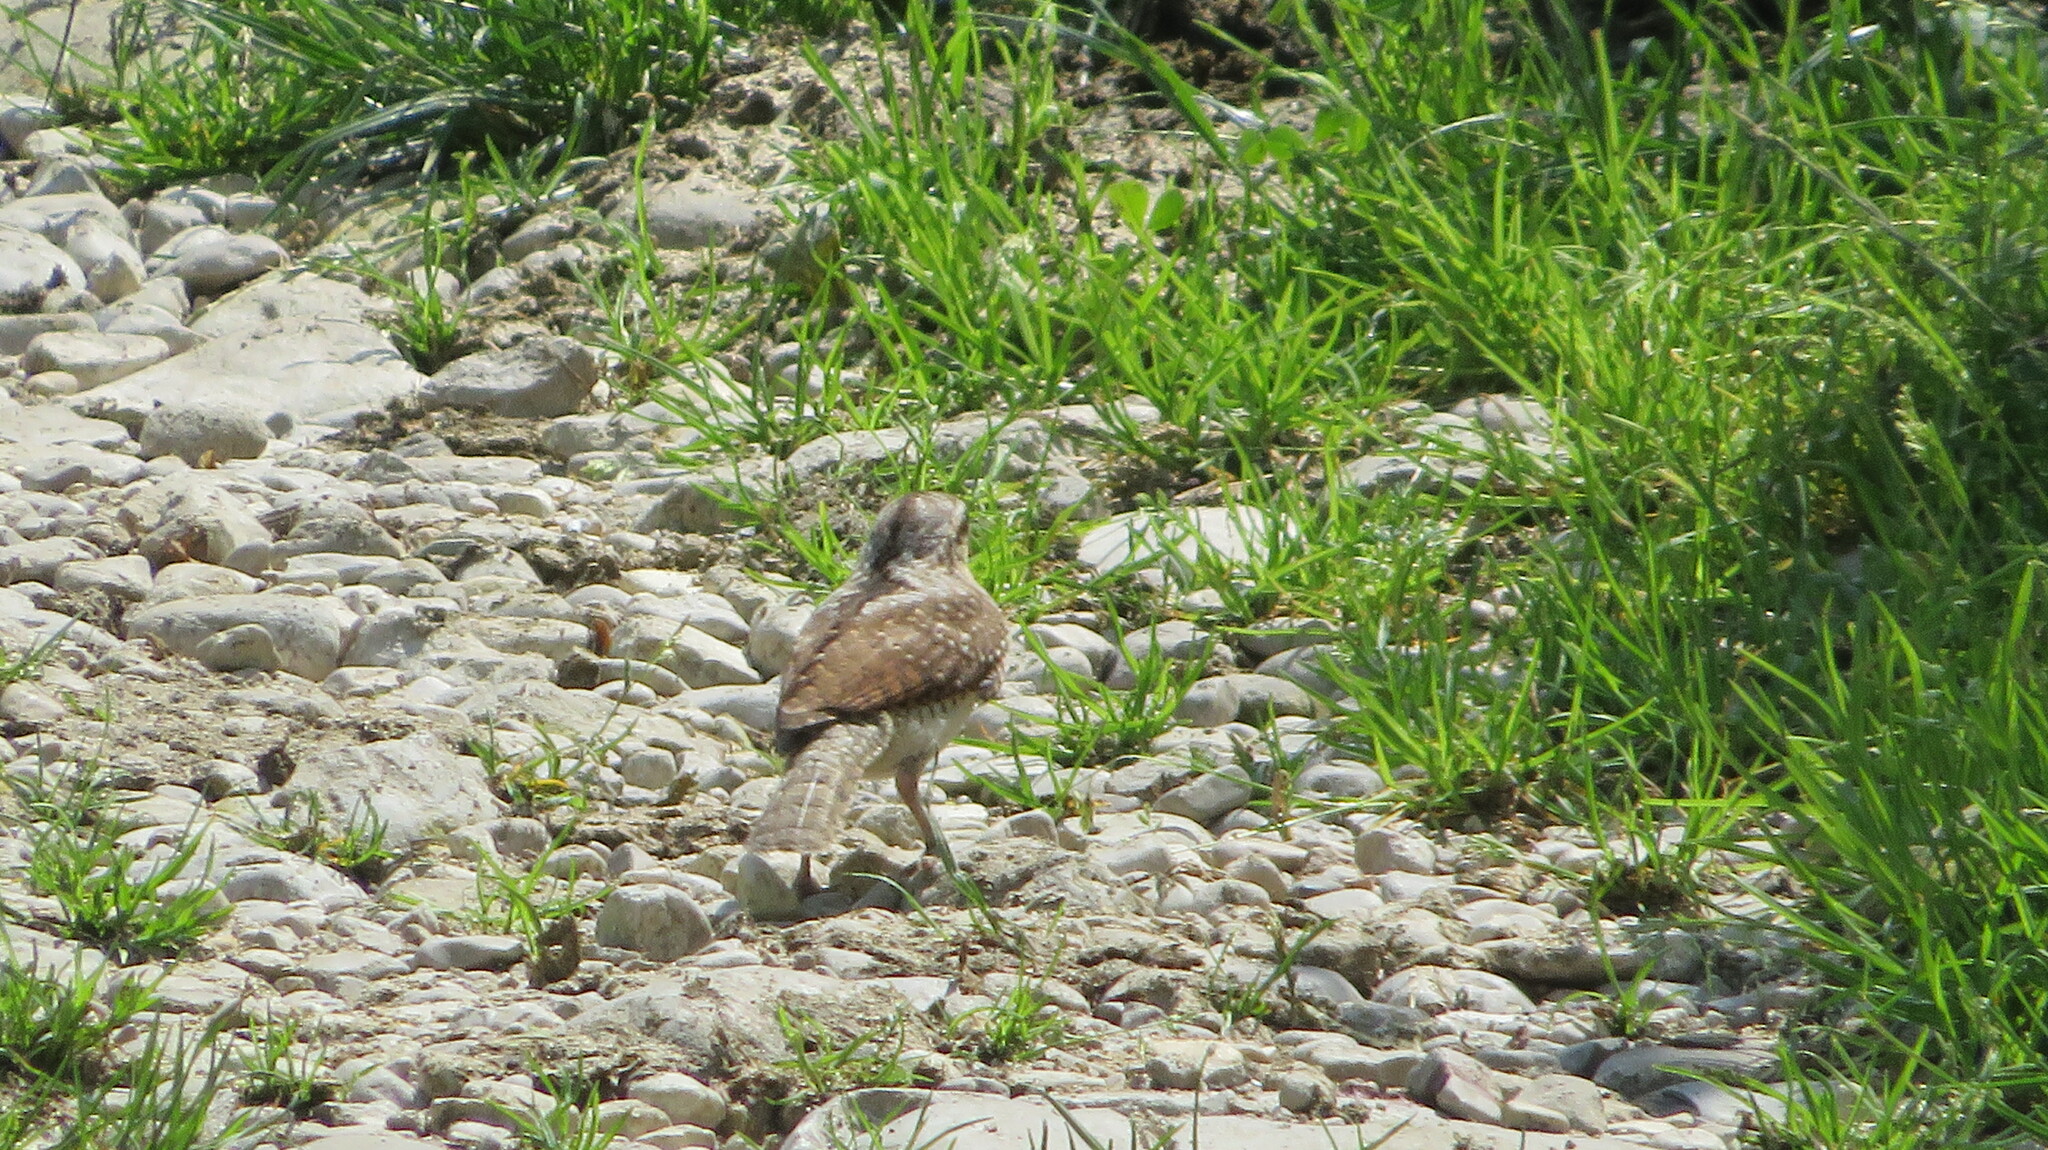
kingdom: Animalia
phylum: Chordata
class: Aves
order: Piciformes
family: Picidae
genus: Jynx
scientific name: Jynx torquilla
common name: Eurasian wryneck
